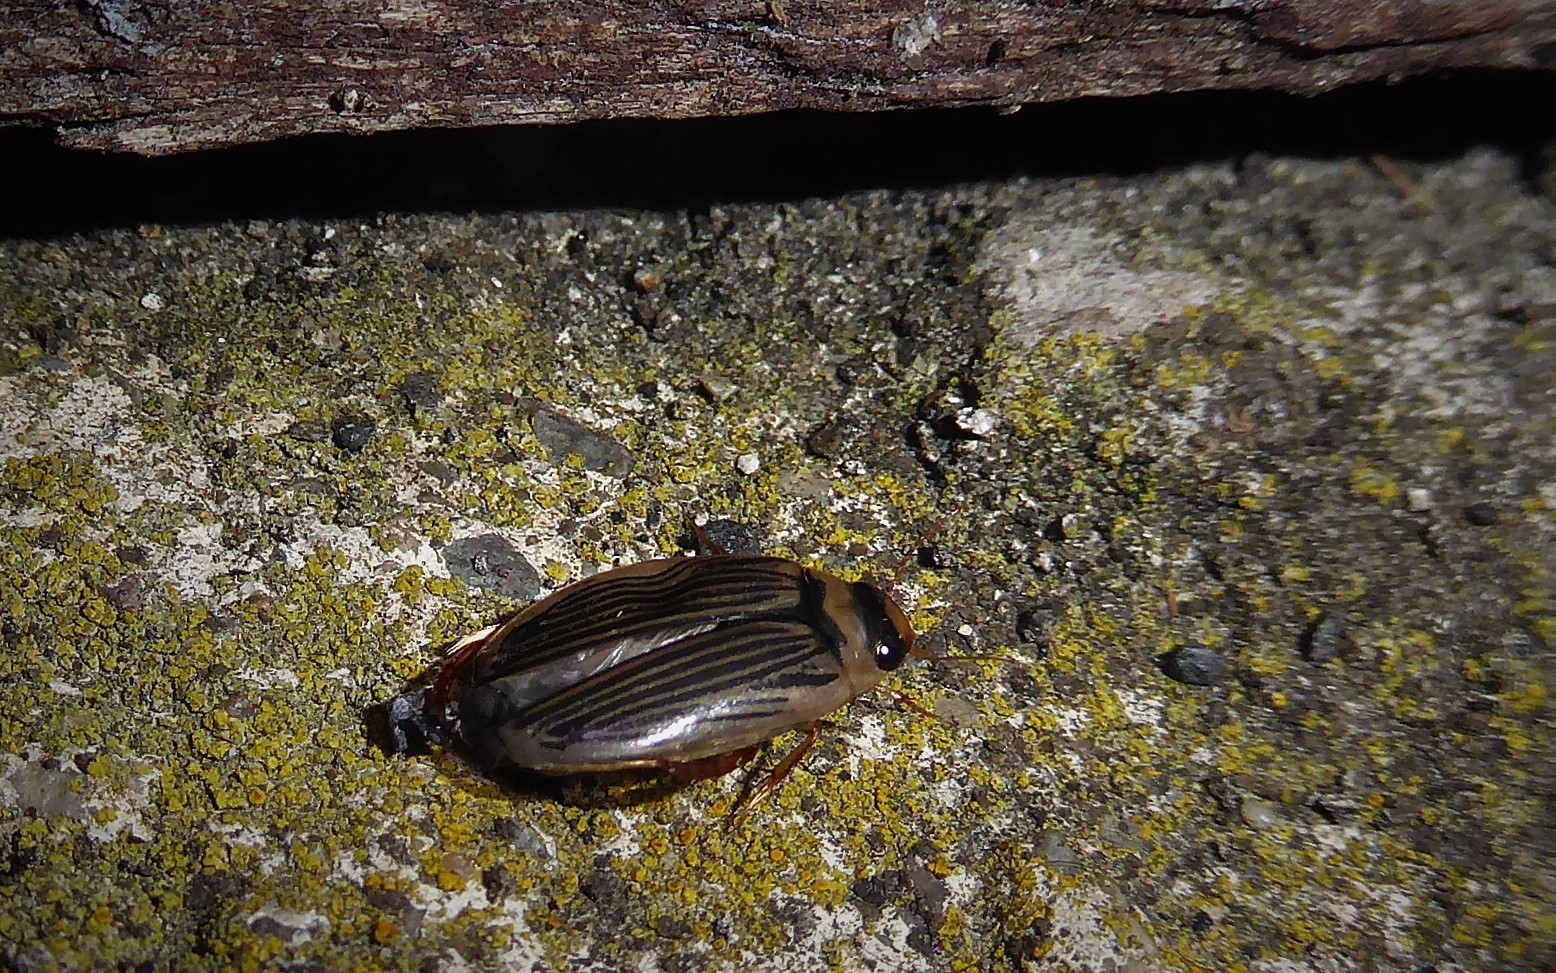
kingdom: Animalia
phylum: Arthropoda
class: Insecta
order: Coleoptera
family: Dytiscidae
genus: Lancetes
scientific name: Lancetes lanceolatus
